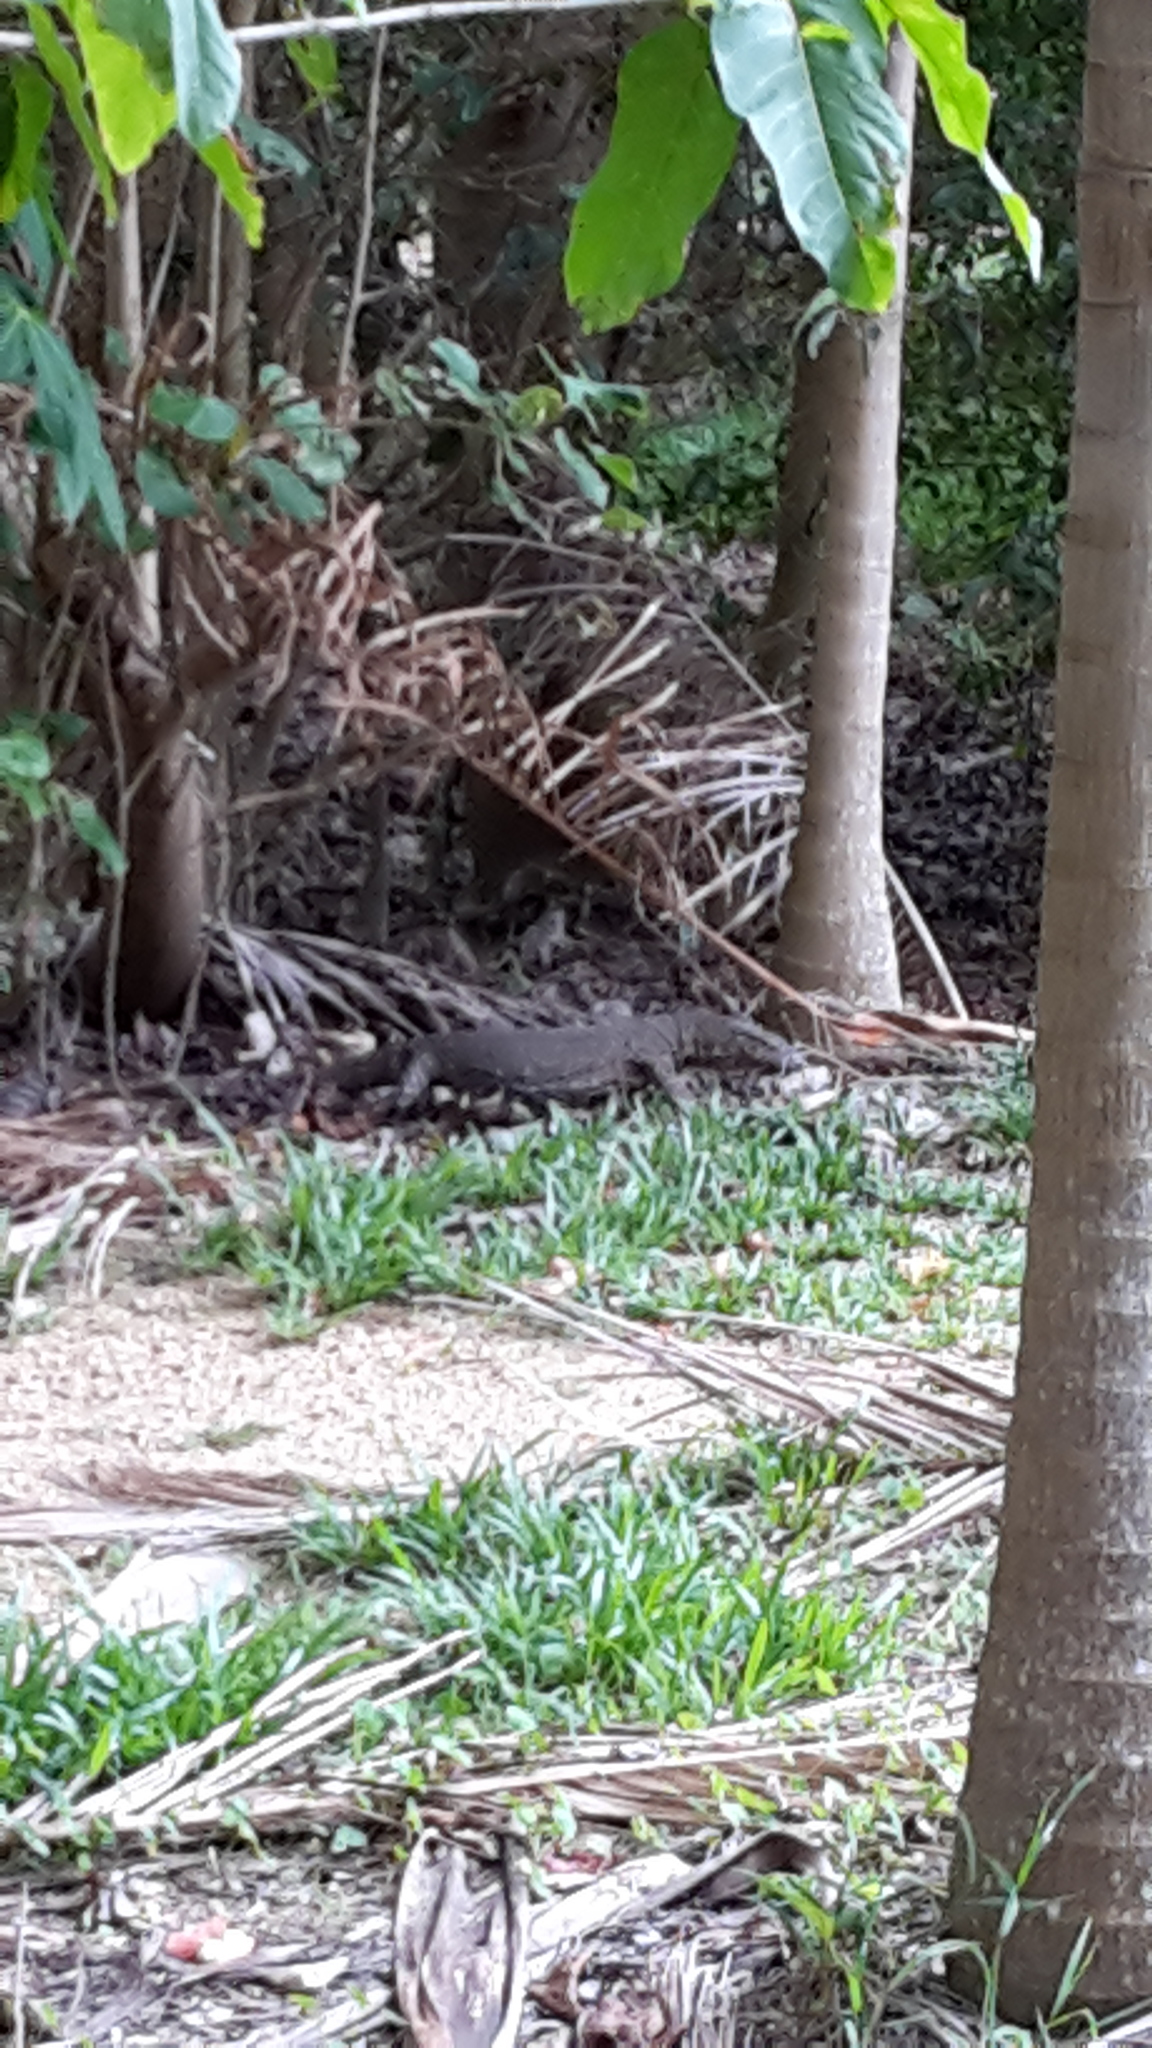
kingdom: Animalia
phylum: Chordata
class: Squamata
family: Varanidae
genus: Varanus
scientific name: Varanus varius
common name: Lace monitor
